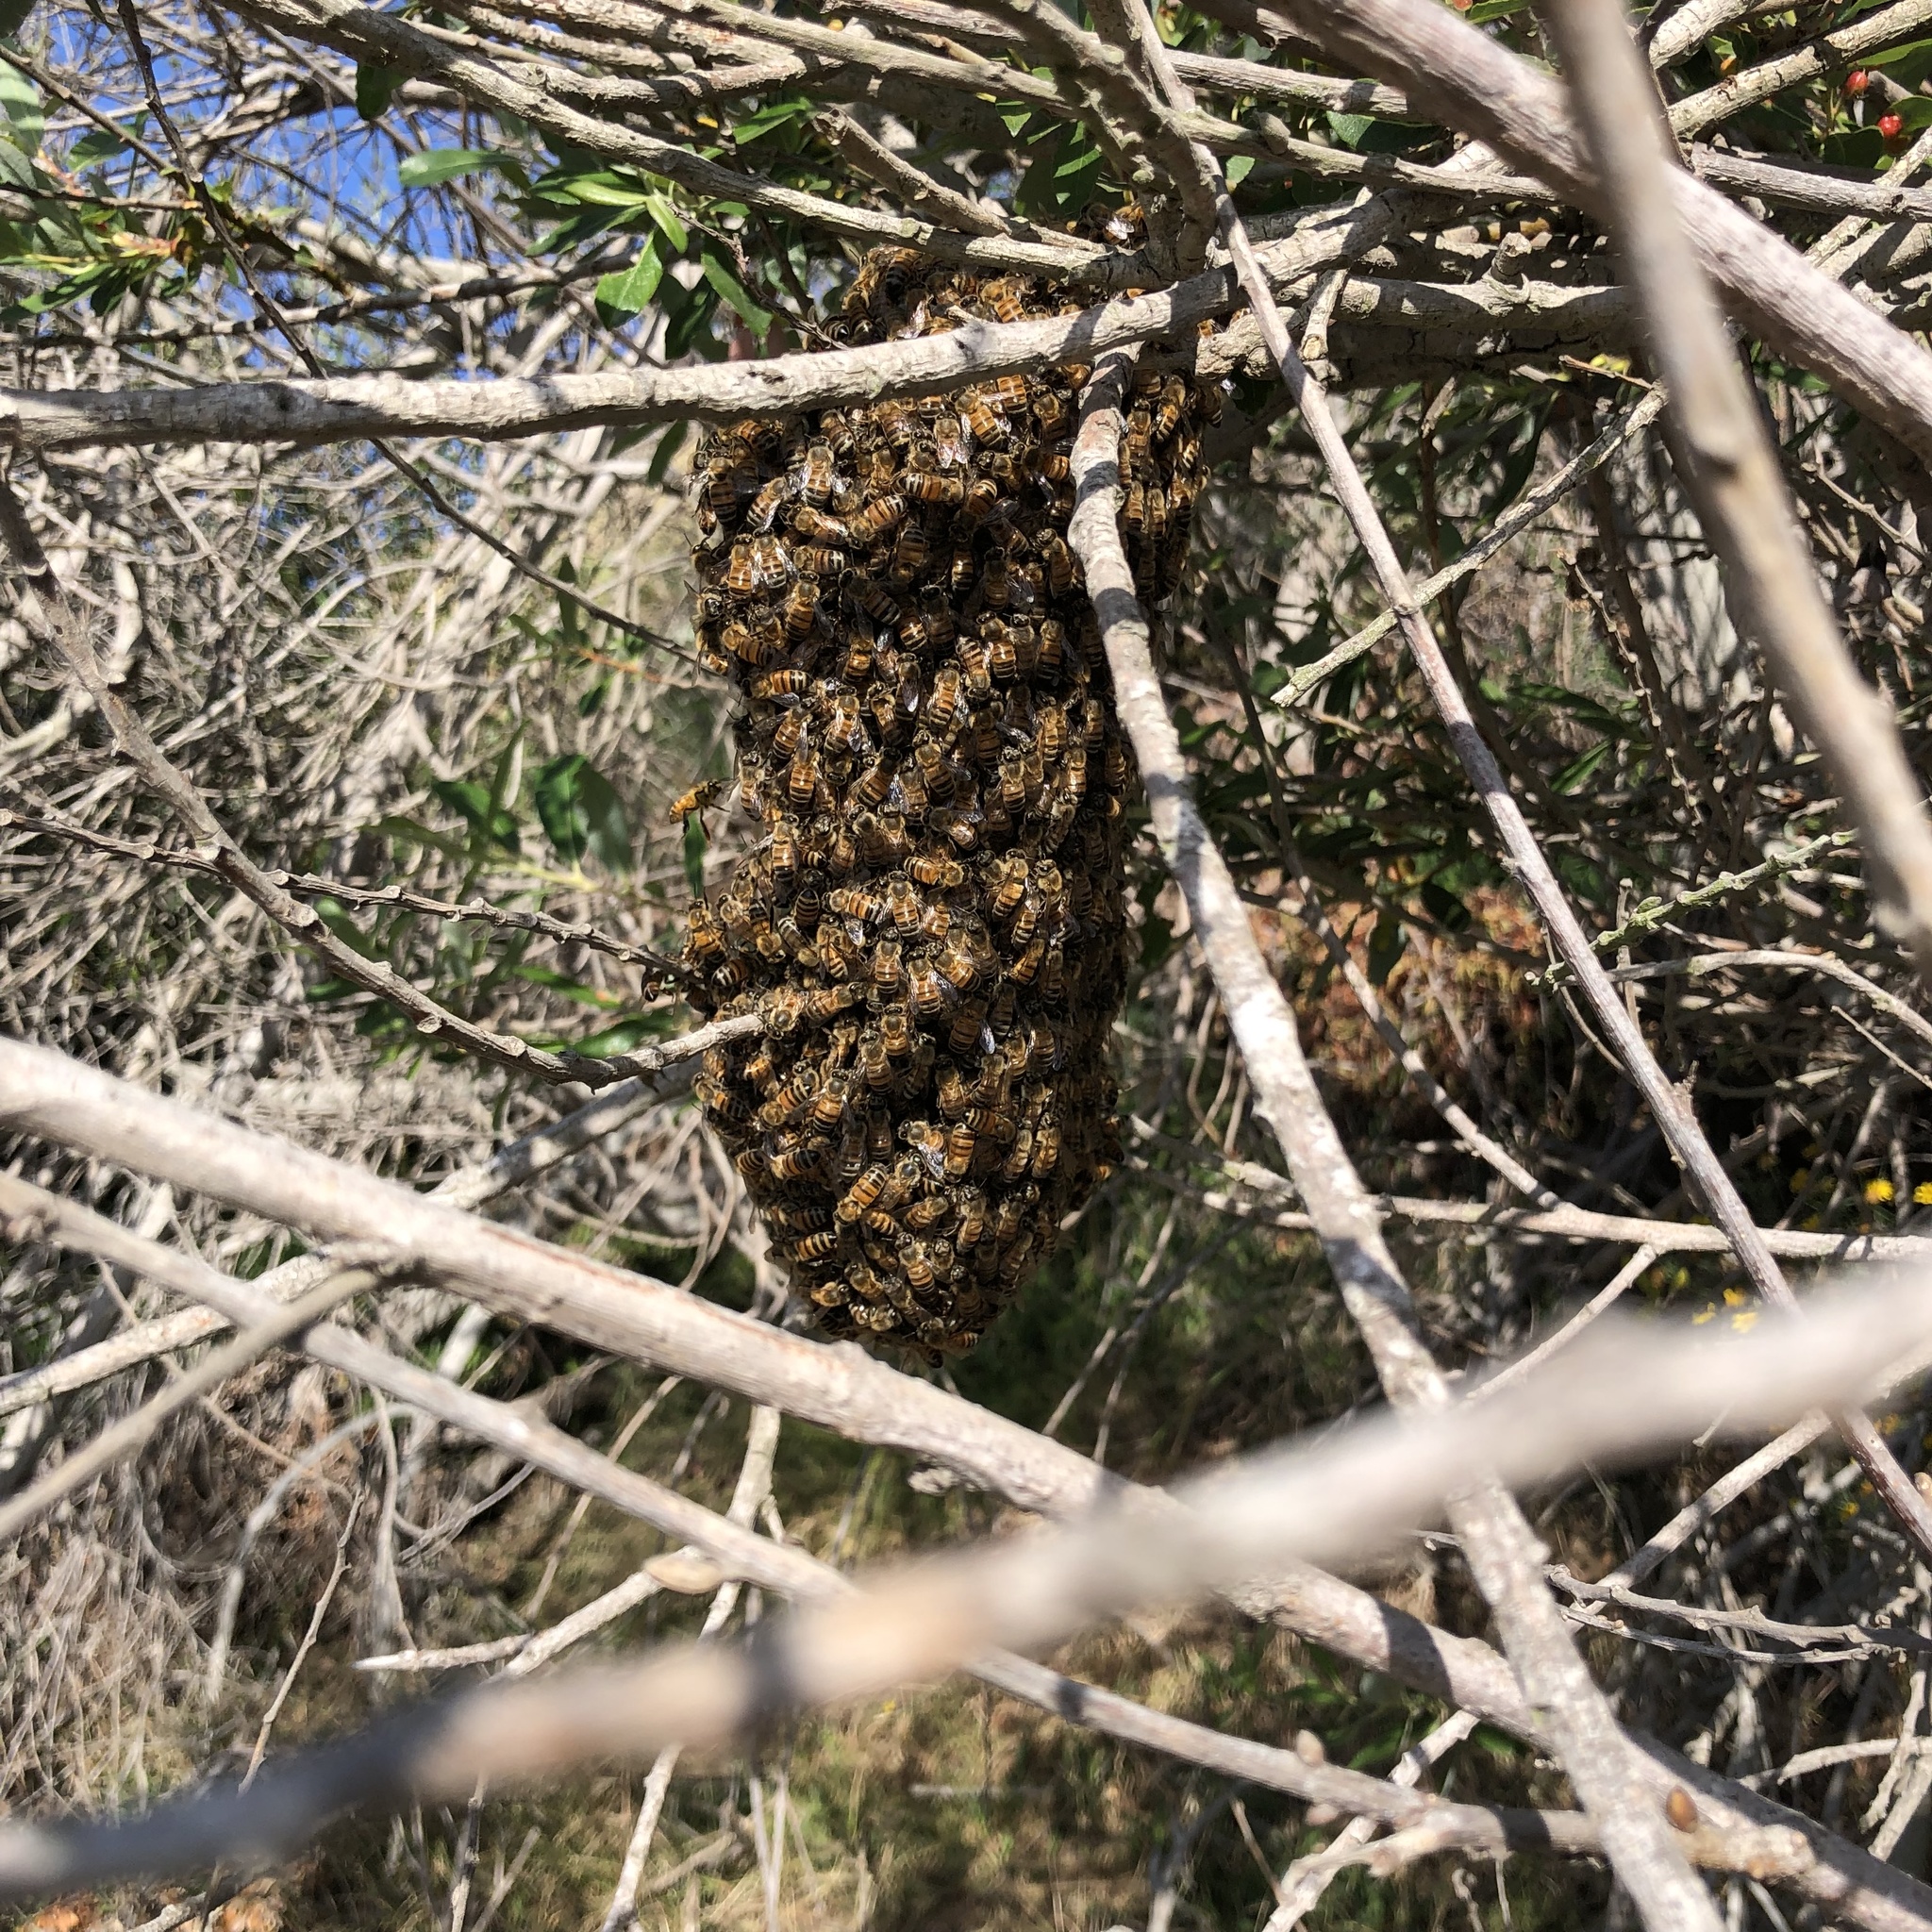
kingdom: Animalia
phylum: Arthropoda
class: Insecta
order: Hymenoptera
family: Apidae
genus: Apis
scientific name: Apis mellifera
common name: Honey bee
